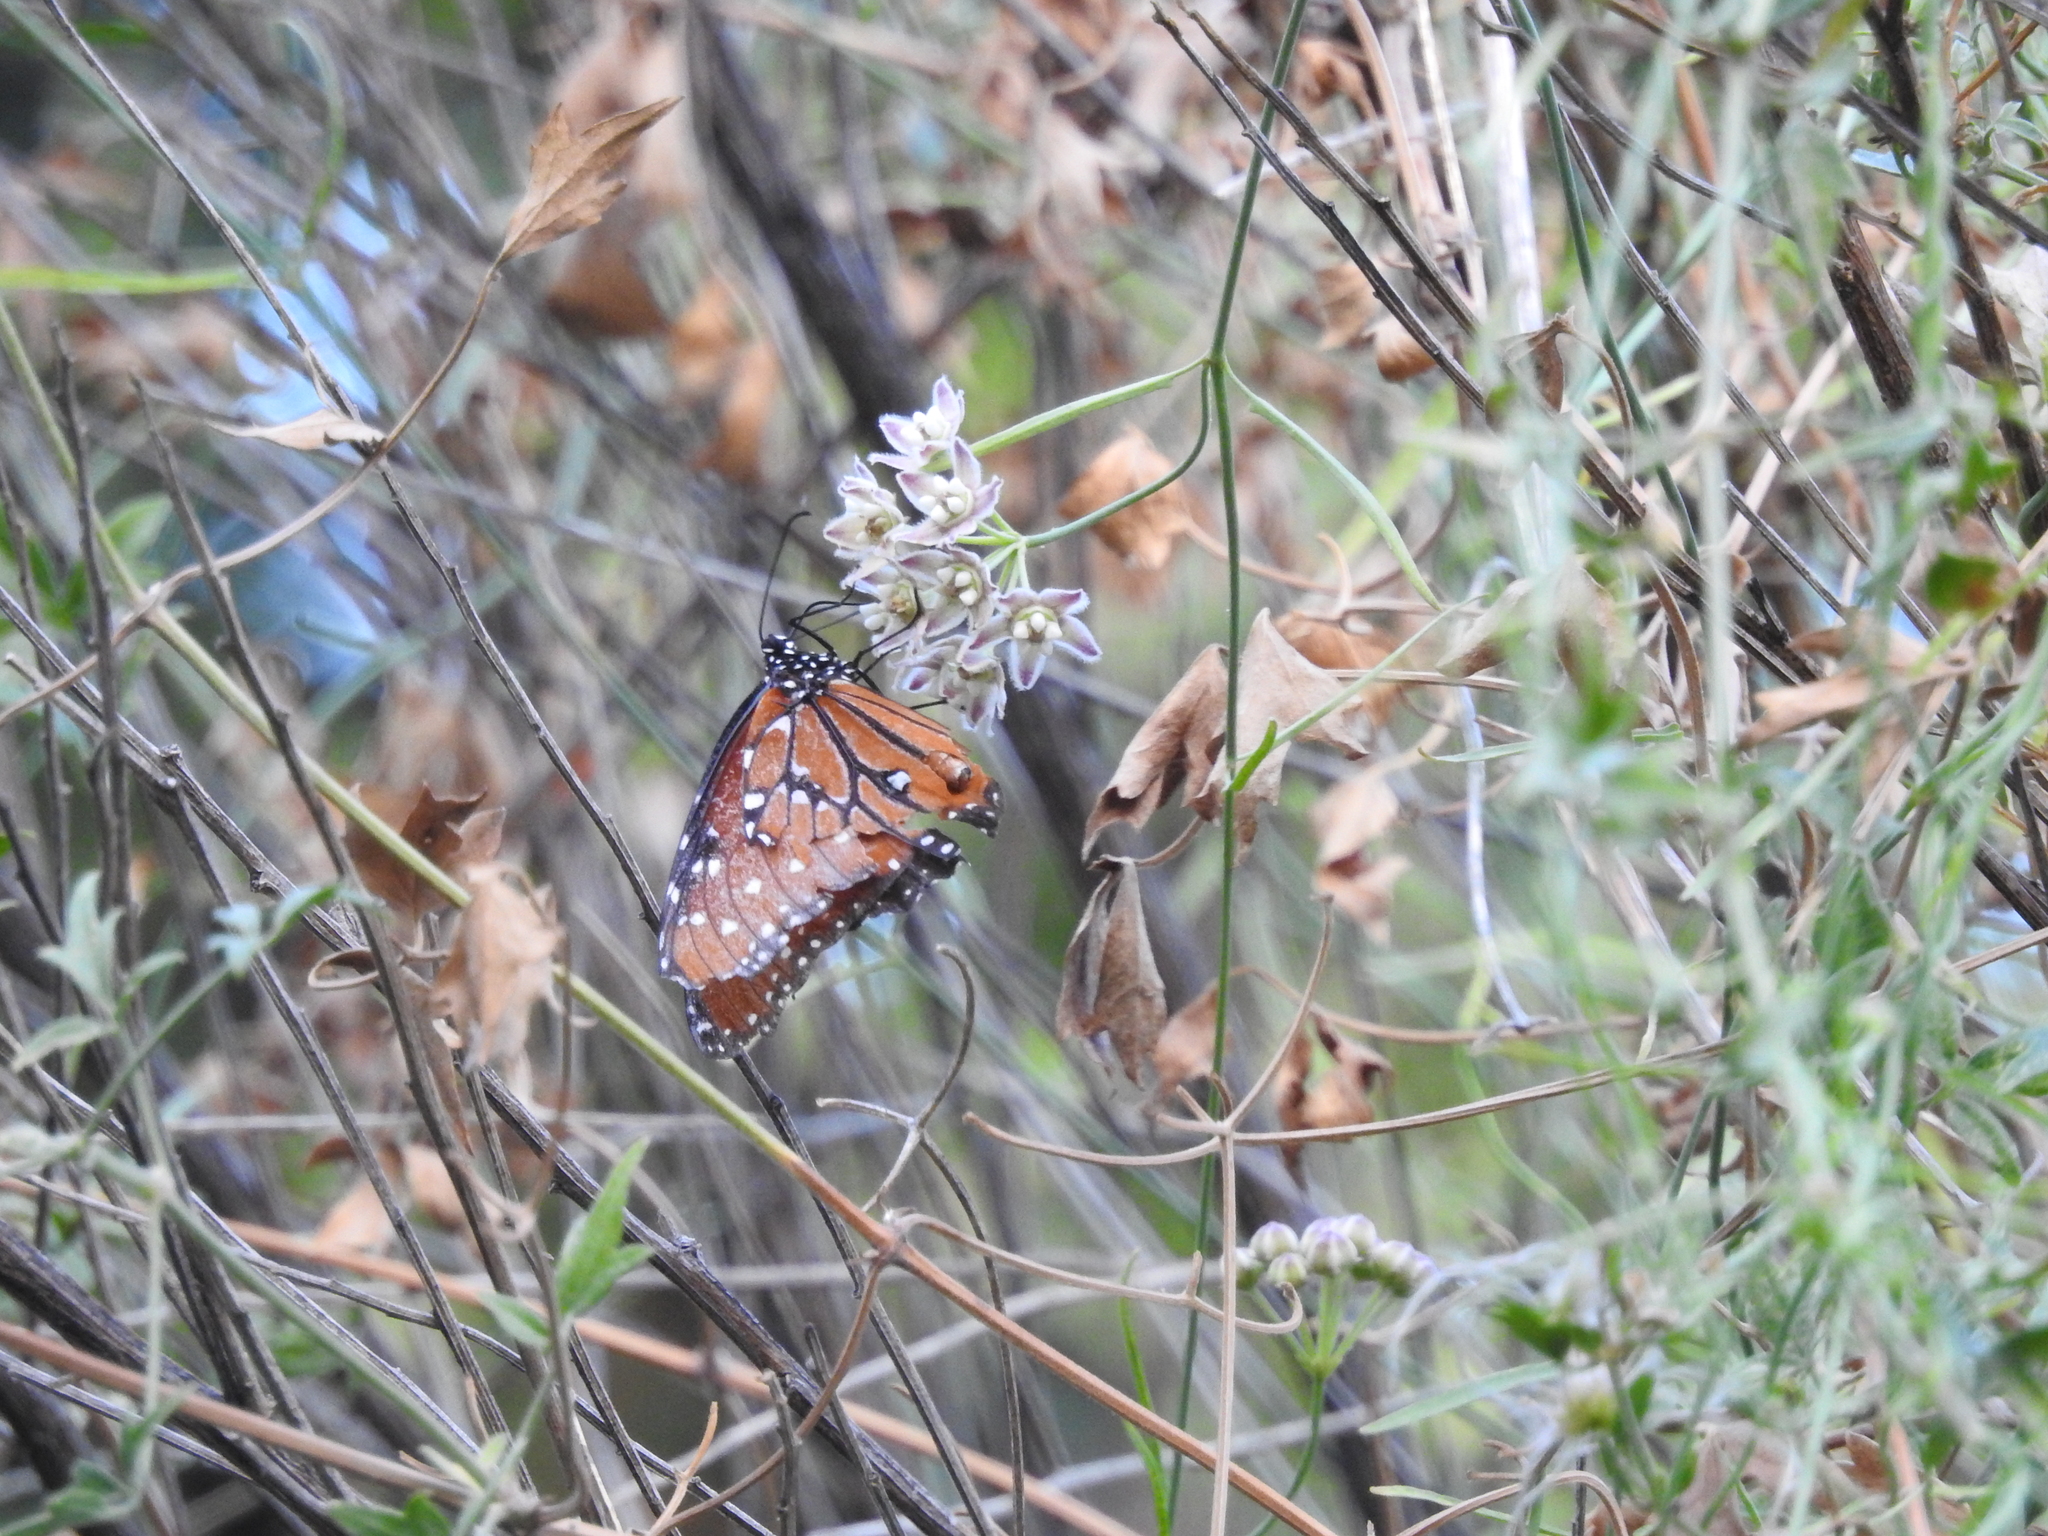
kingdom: Plantae
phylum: Tracheophyta
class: Magnoliopsida
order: Gentianales
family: Apocynaceae
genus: Funastrum
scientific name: Funastrum heterophyllum
